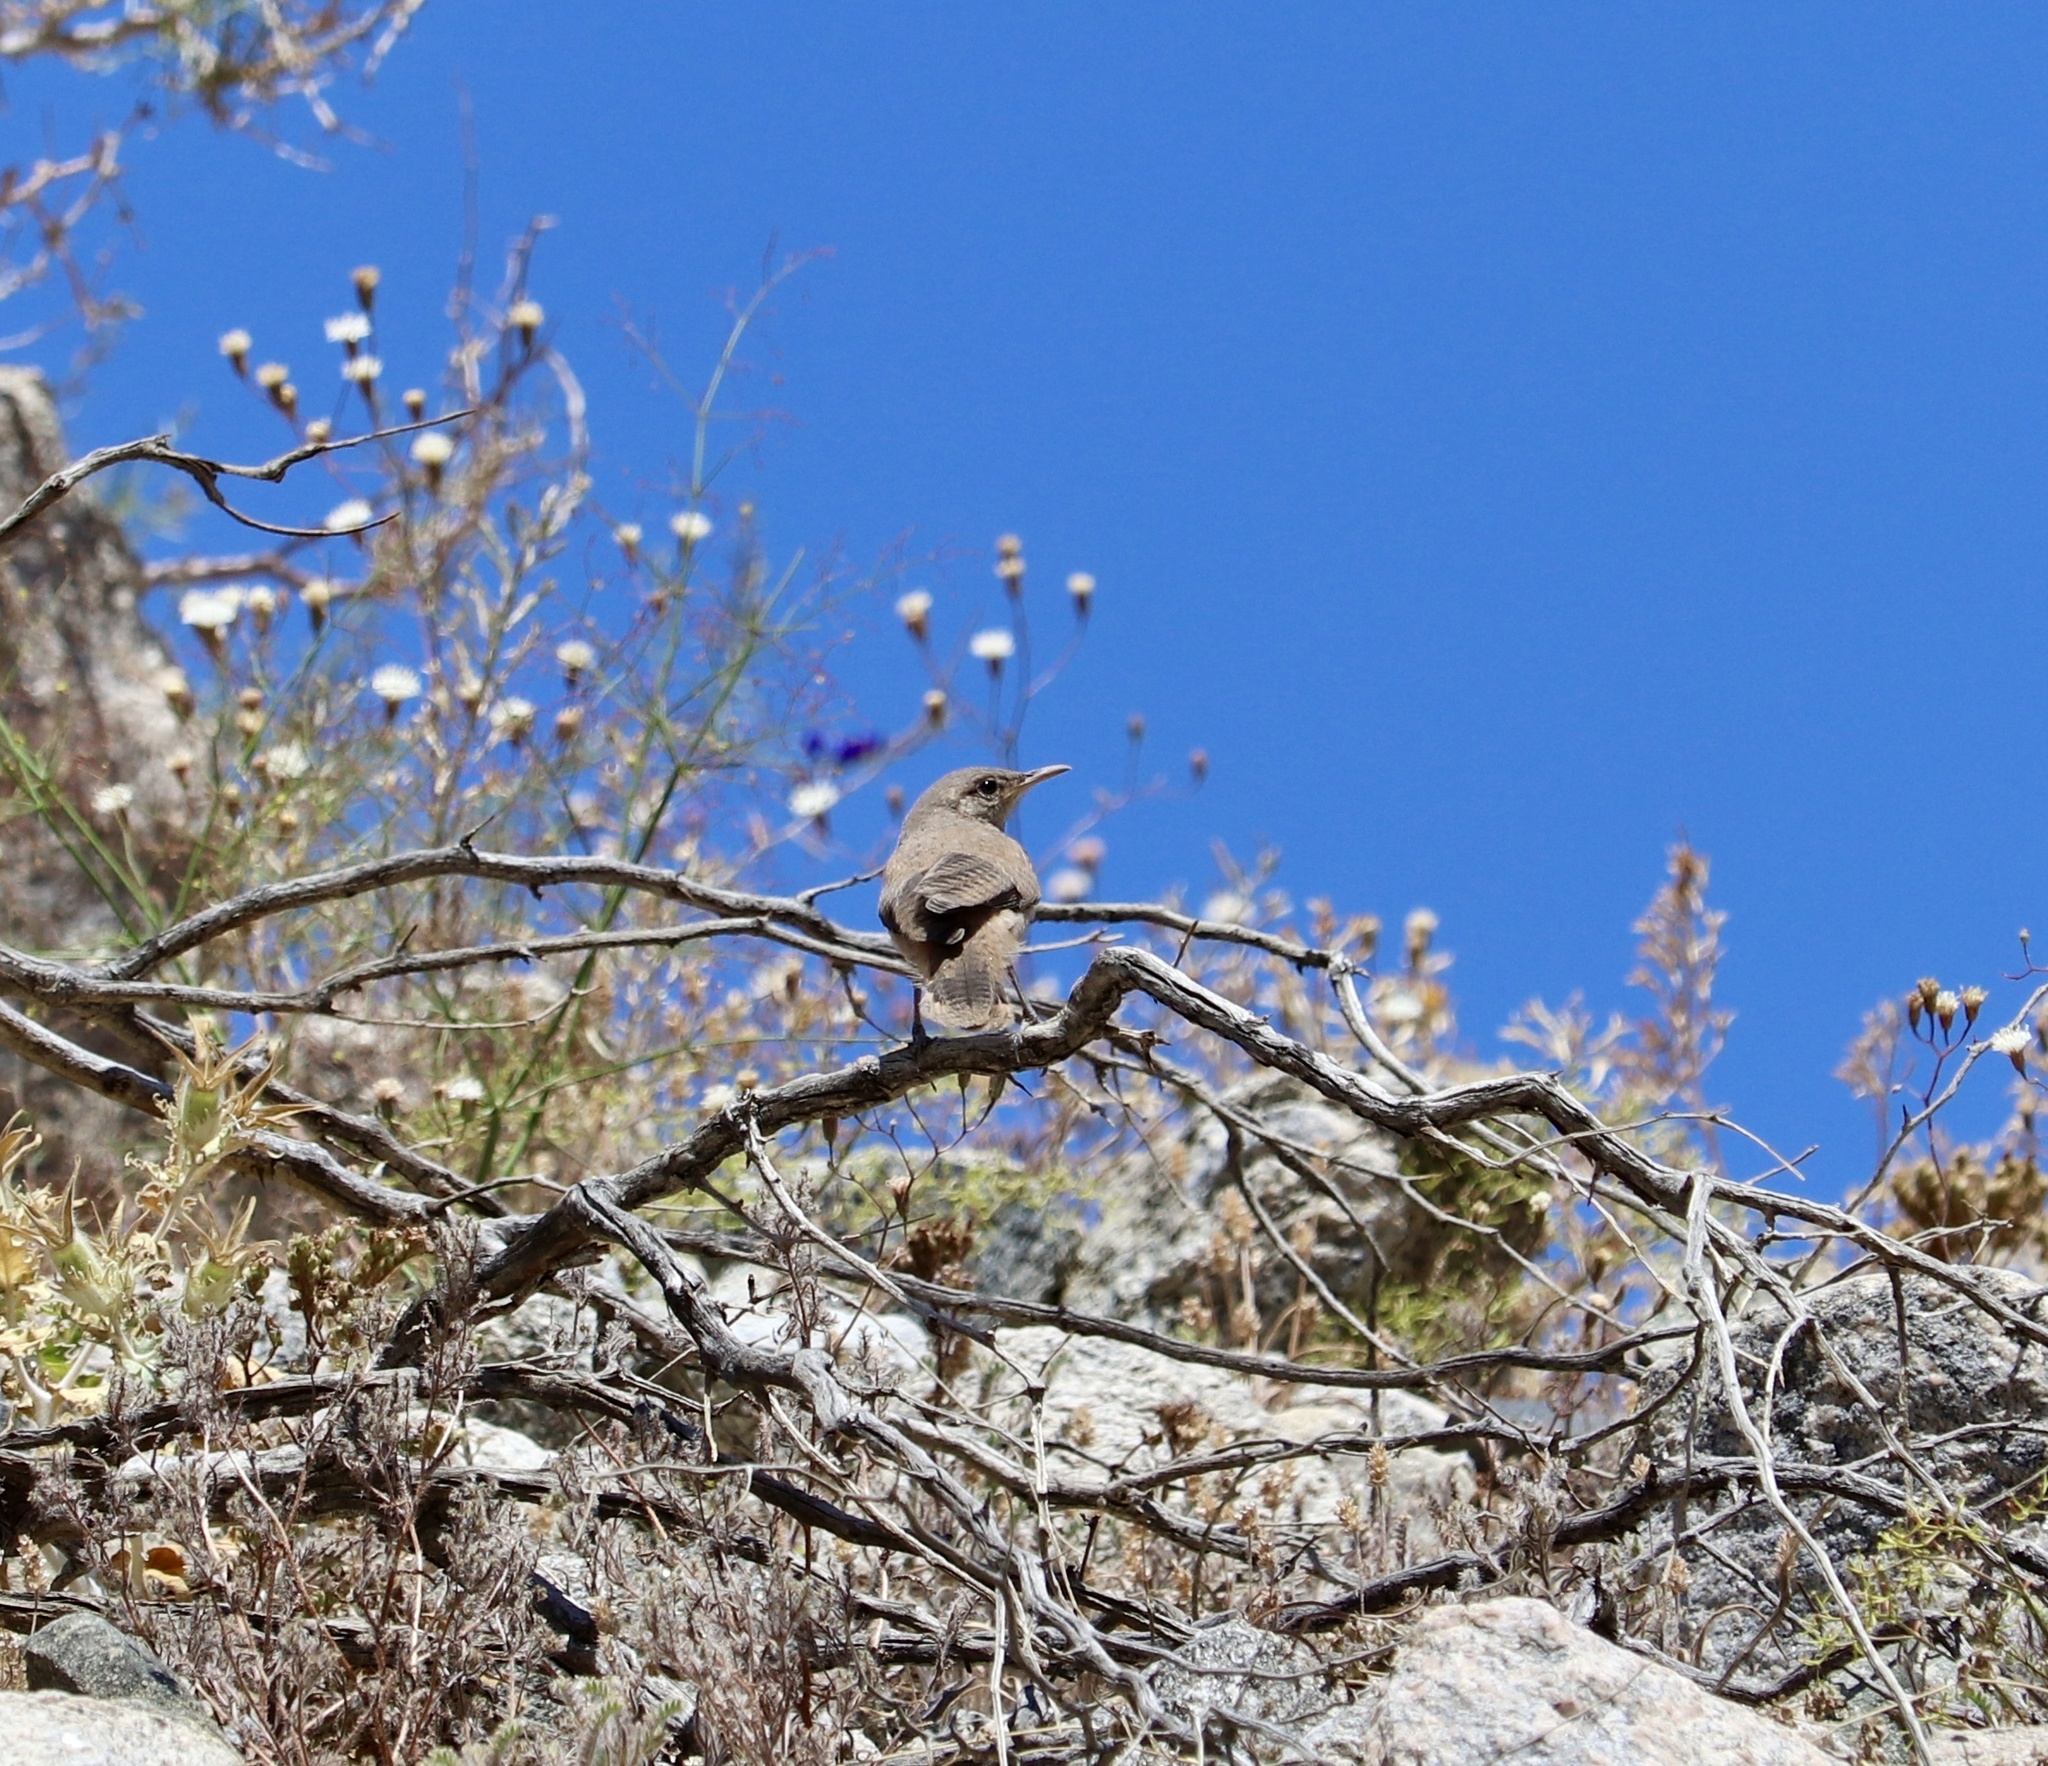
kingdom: Animalia
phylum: Chordata
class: Aves
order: Passeriformes
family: Troglodytidae
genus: Salpinctes
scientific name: Salpinctes obsoletus
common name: Rock wren
